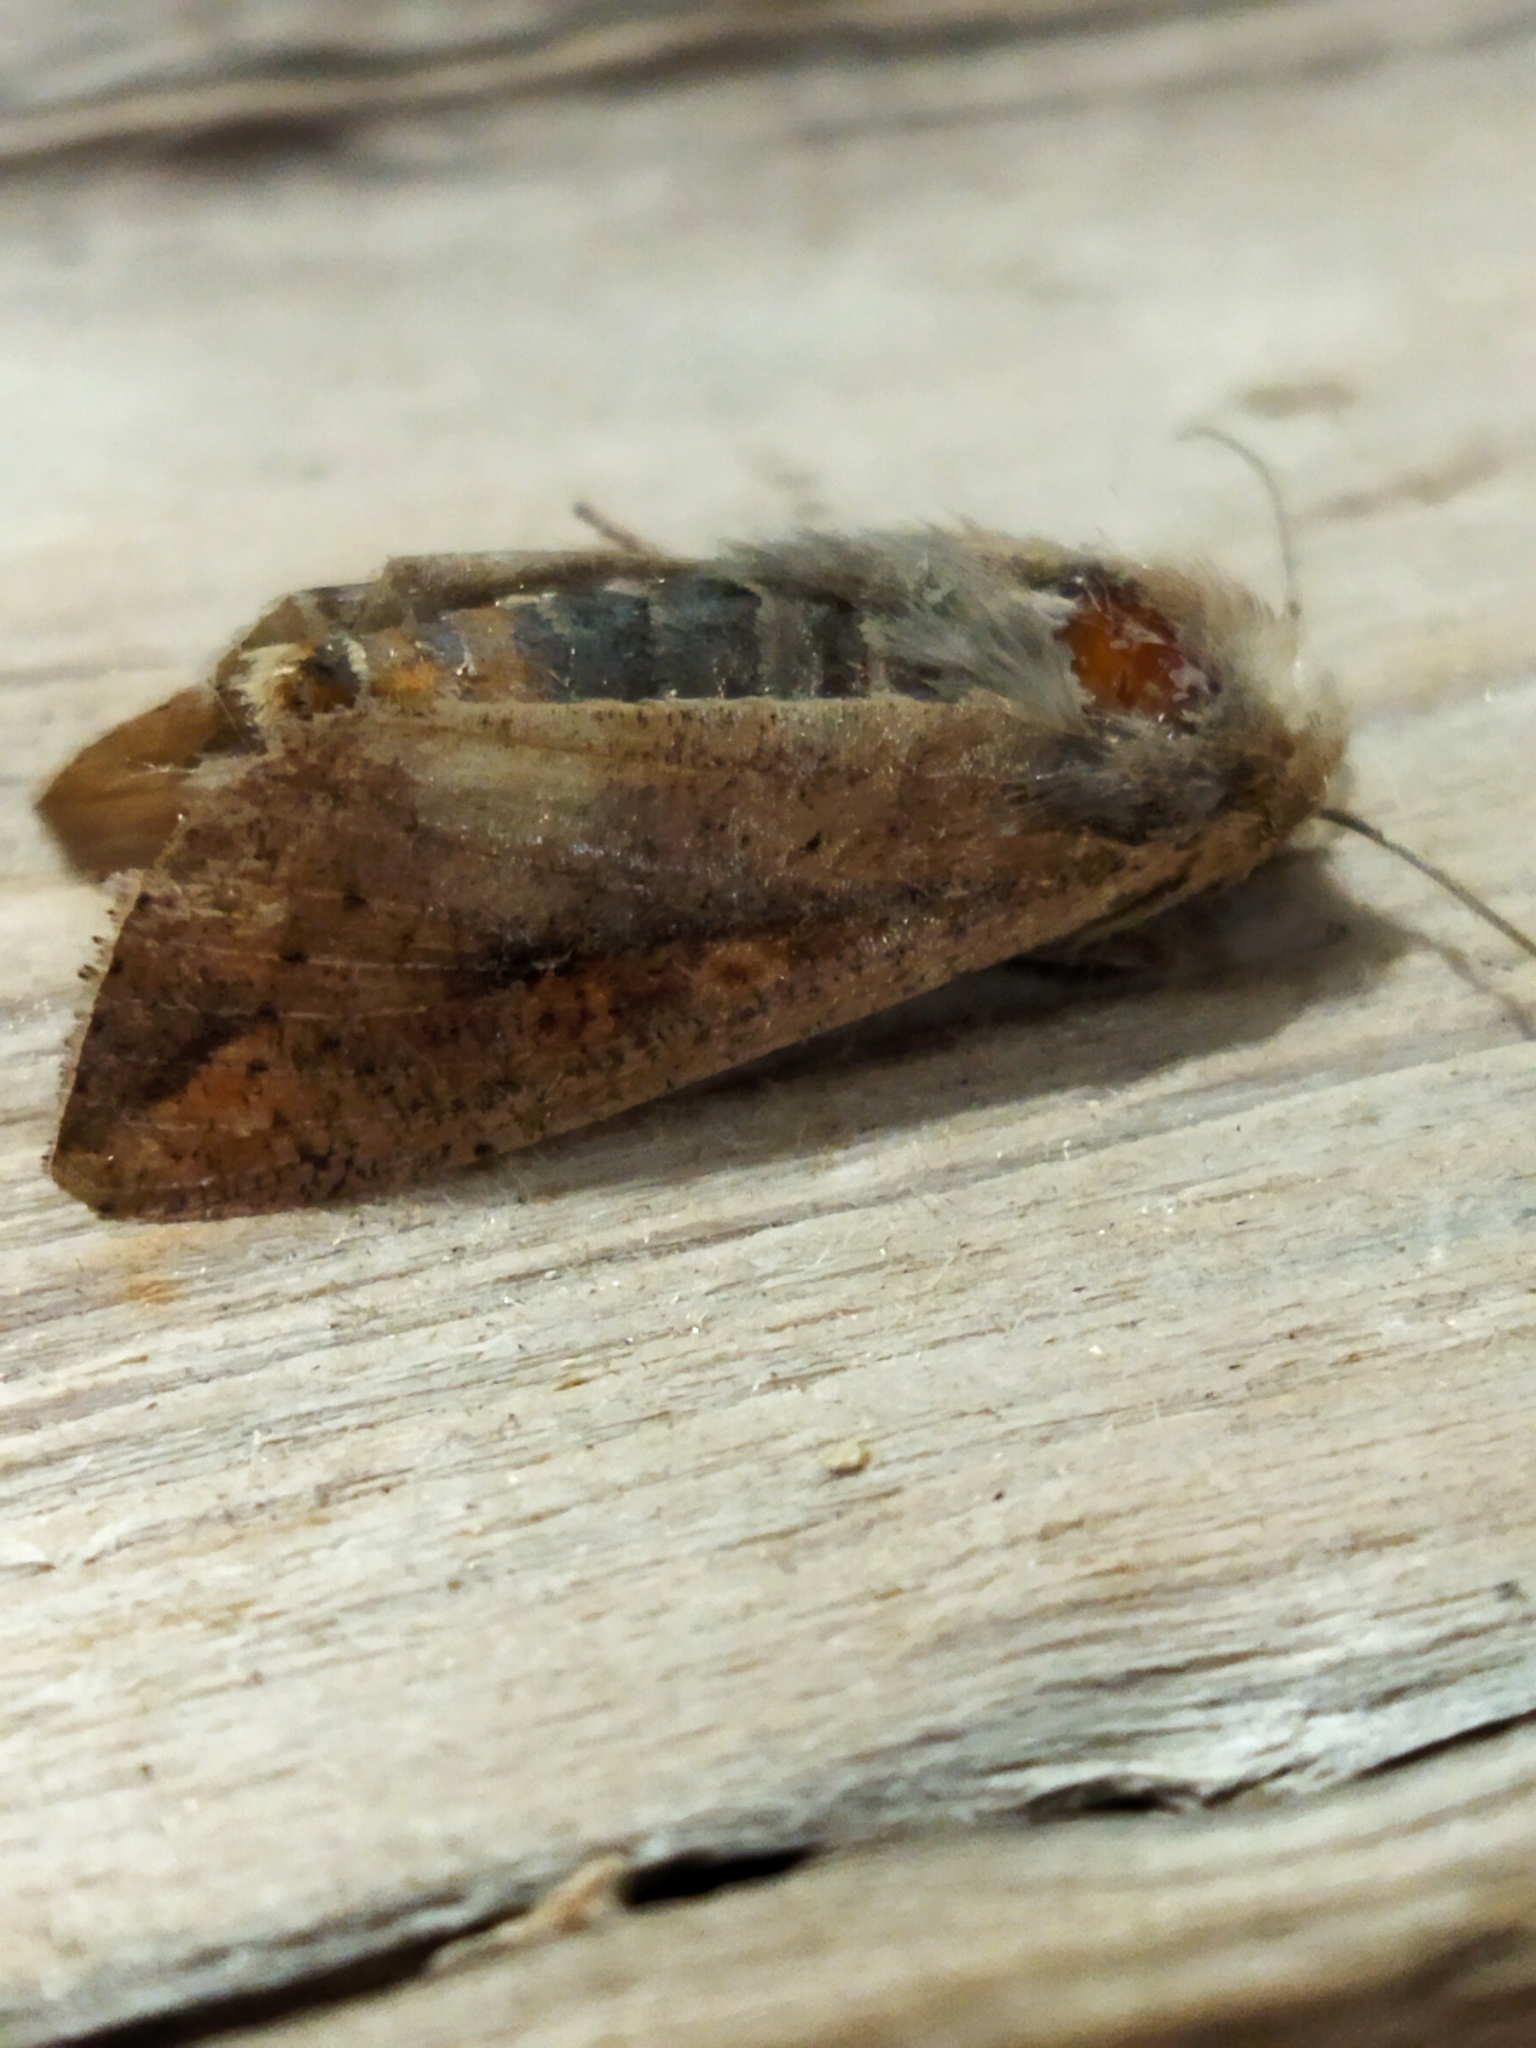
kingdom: Animalia
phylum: Arthropoda
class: Insecta
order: Lepidoptera
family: Noctuidae
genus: Mythimna
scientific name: Mythimna unipuncta
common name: White-speck
